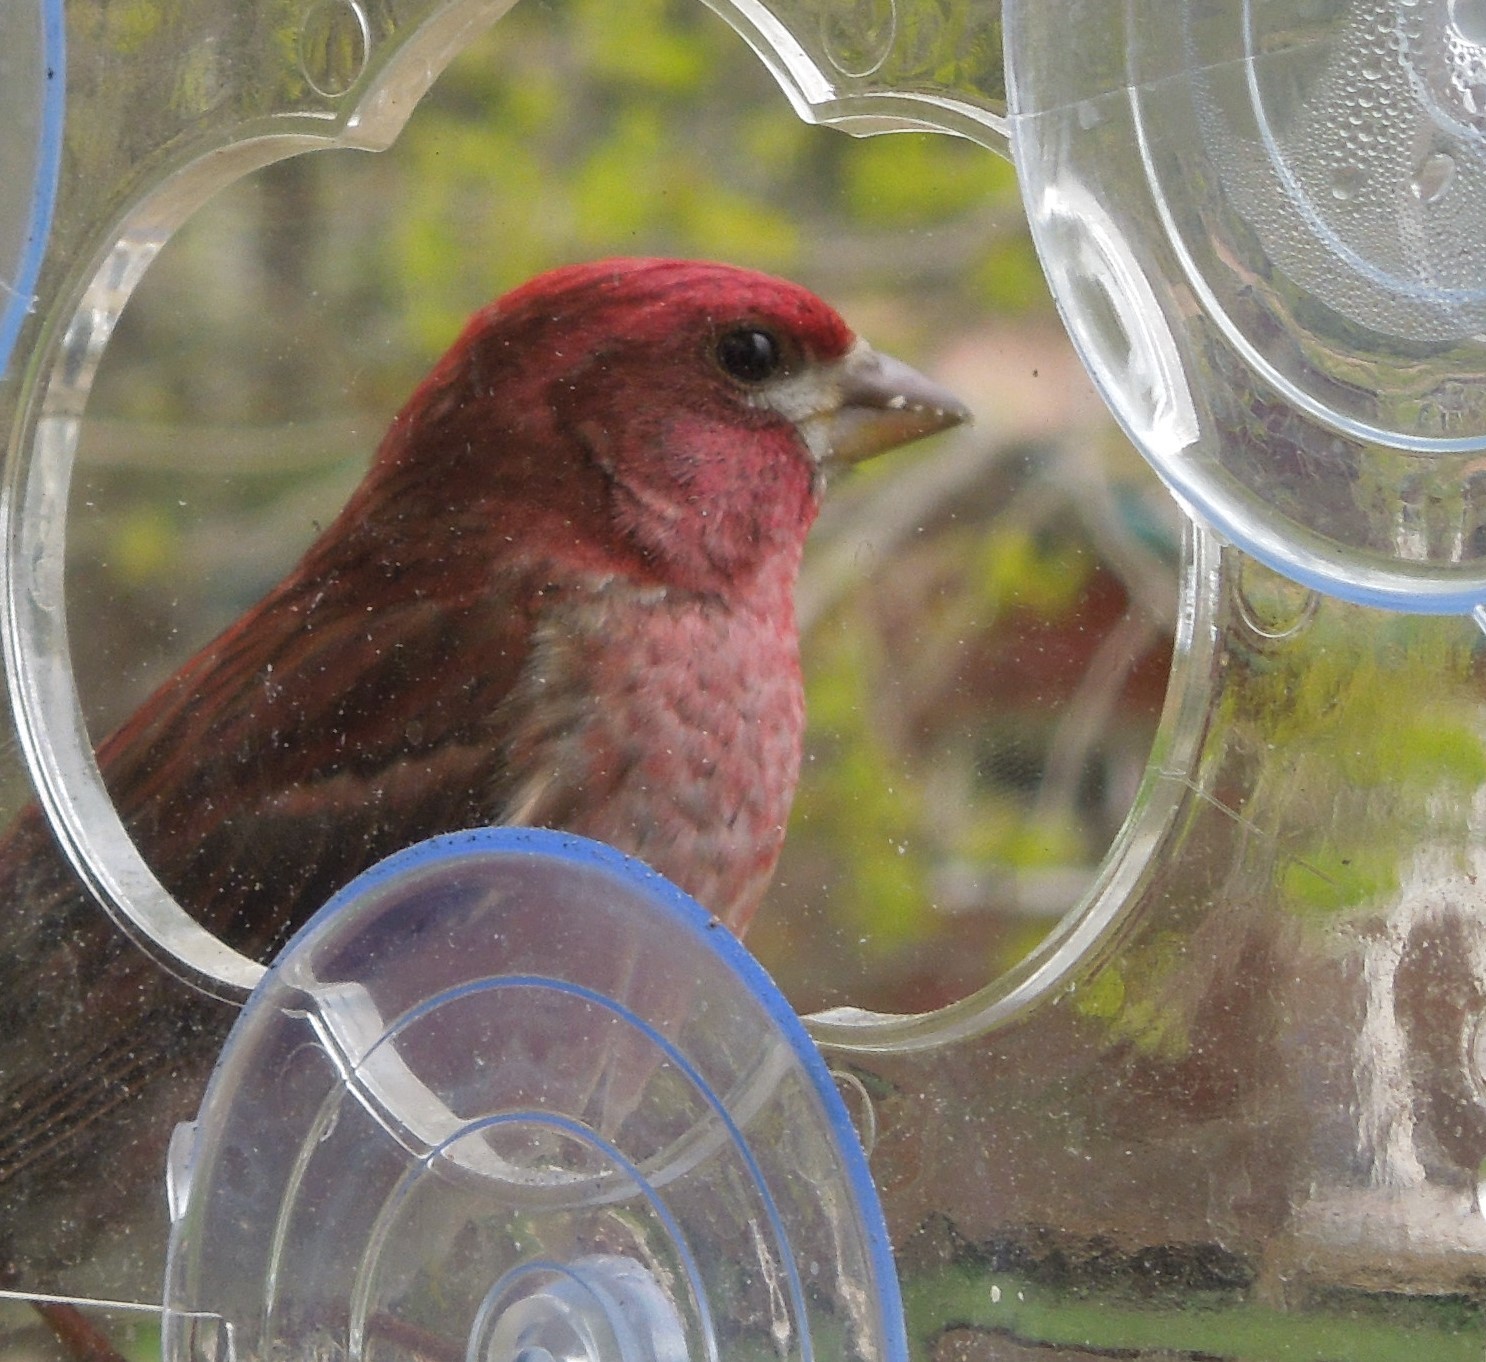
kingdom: Animalia
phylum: Chordata
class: Aves
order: Passeriformes
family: Fringillidae
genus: Haemorhous
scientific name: Haemorhous purpureus
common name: Purple finch
